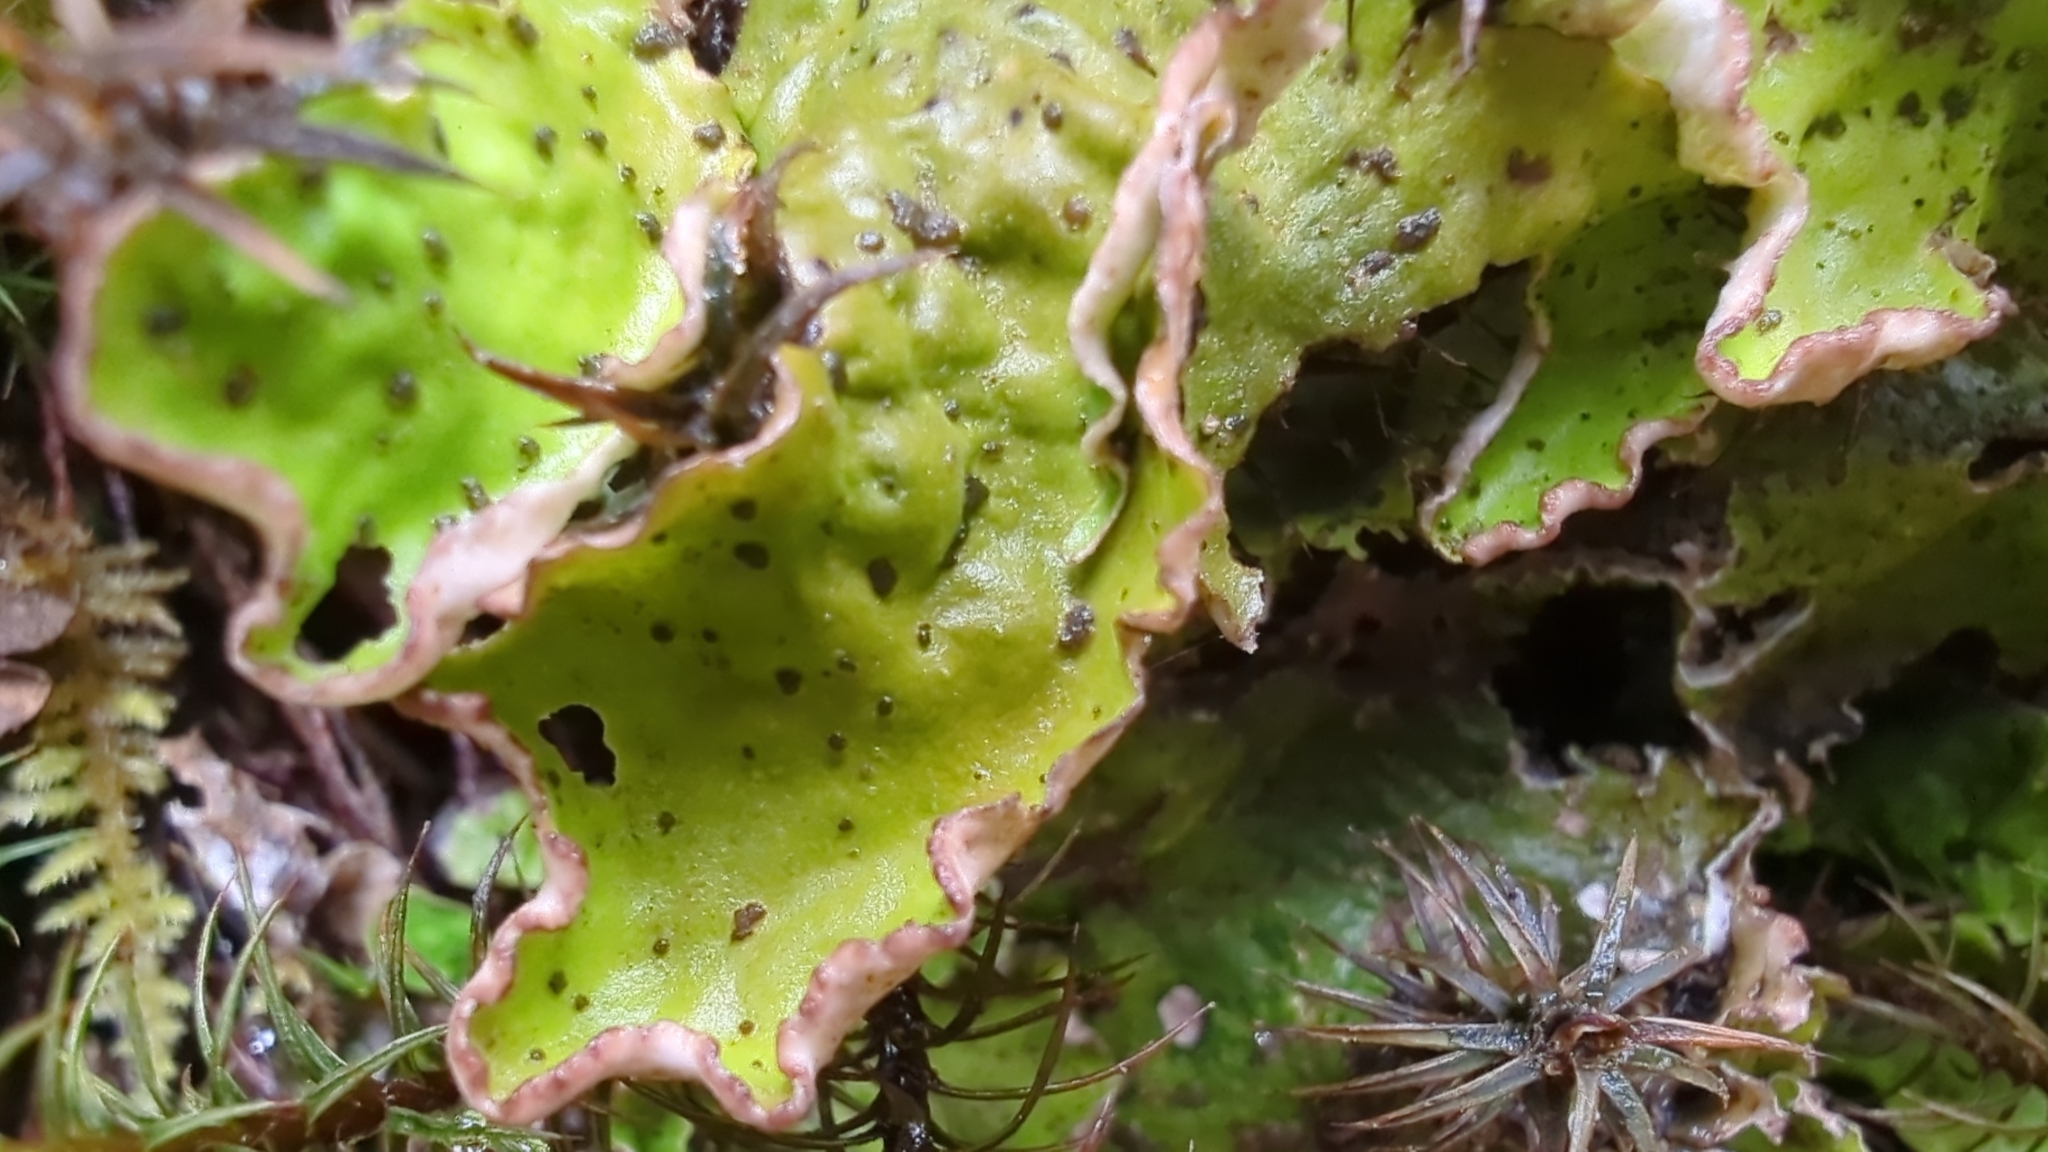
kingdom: Fungi
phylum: Ascomycota
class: Lecanoromycetes
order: Peltigerales
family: Peltigeraceae
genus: Peltigera
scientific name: Peltigera aphthosa
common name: Common freckle pelt lichen
